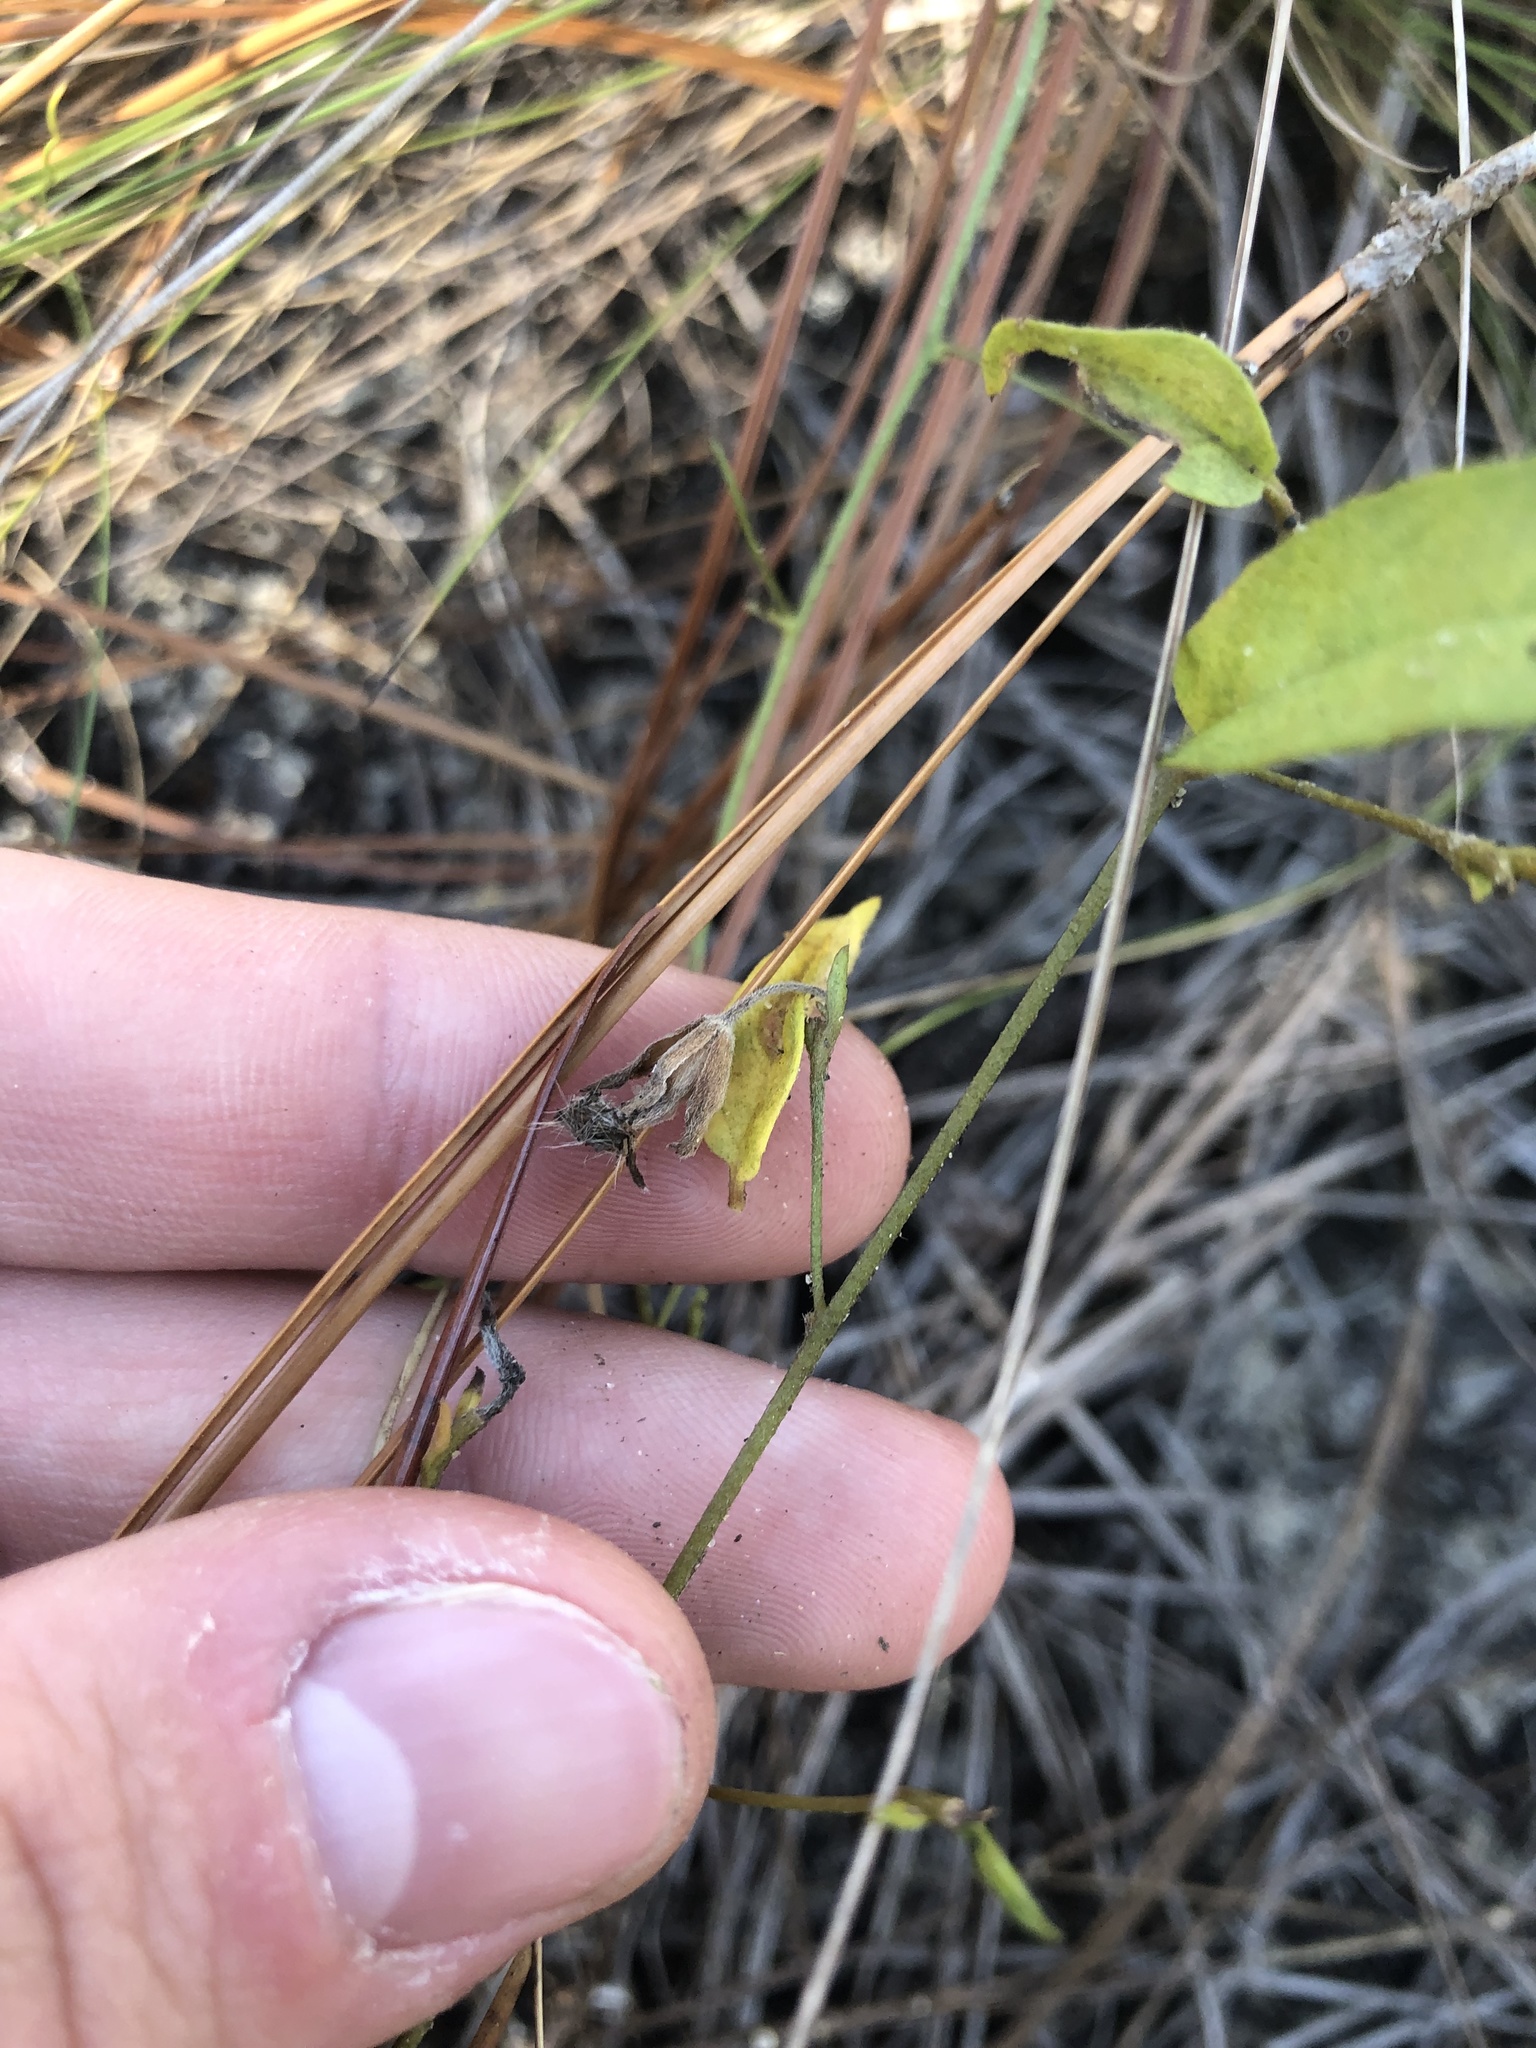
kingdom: Plantae
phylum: Tracheophyta
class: Magnoliopsida
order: Solanales
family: Convolvulaceae
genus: Stylisma
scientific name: Stylisma patens
